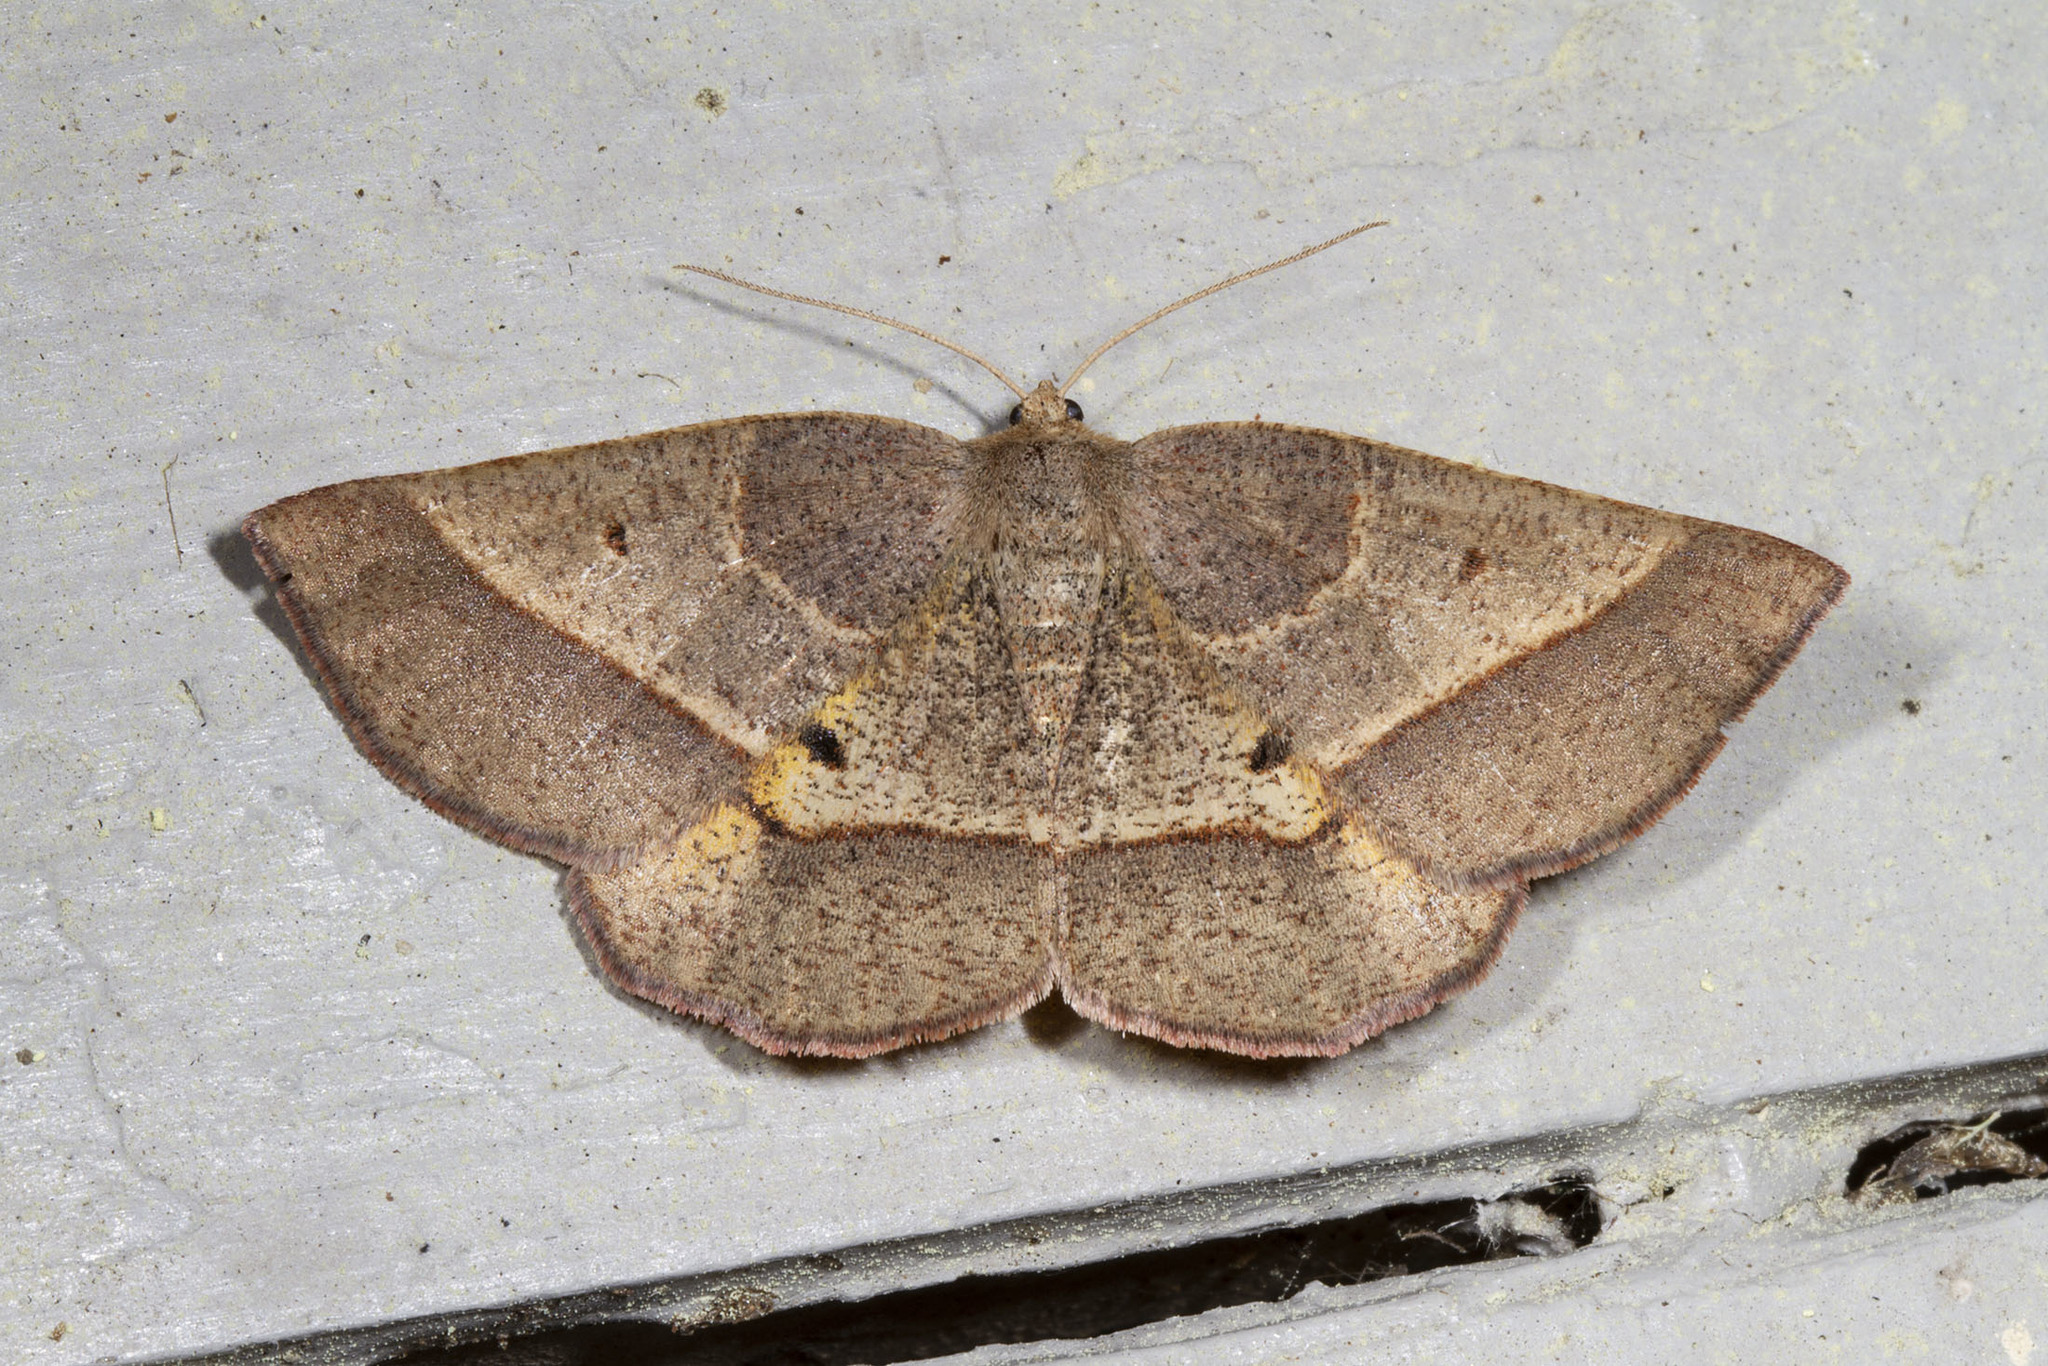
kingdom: Animalia
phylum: Arthropoda
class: Insecta
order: Lepidoptera
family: Geometridae
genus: Metarranthis
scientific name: Metarranthis obfirmaria
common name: Yellow-washed metarranthis
